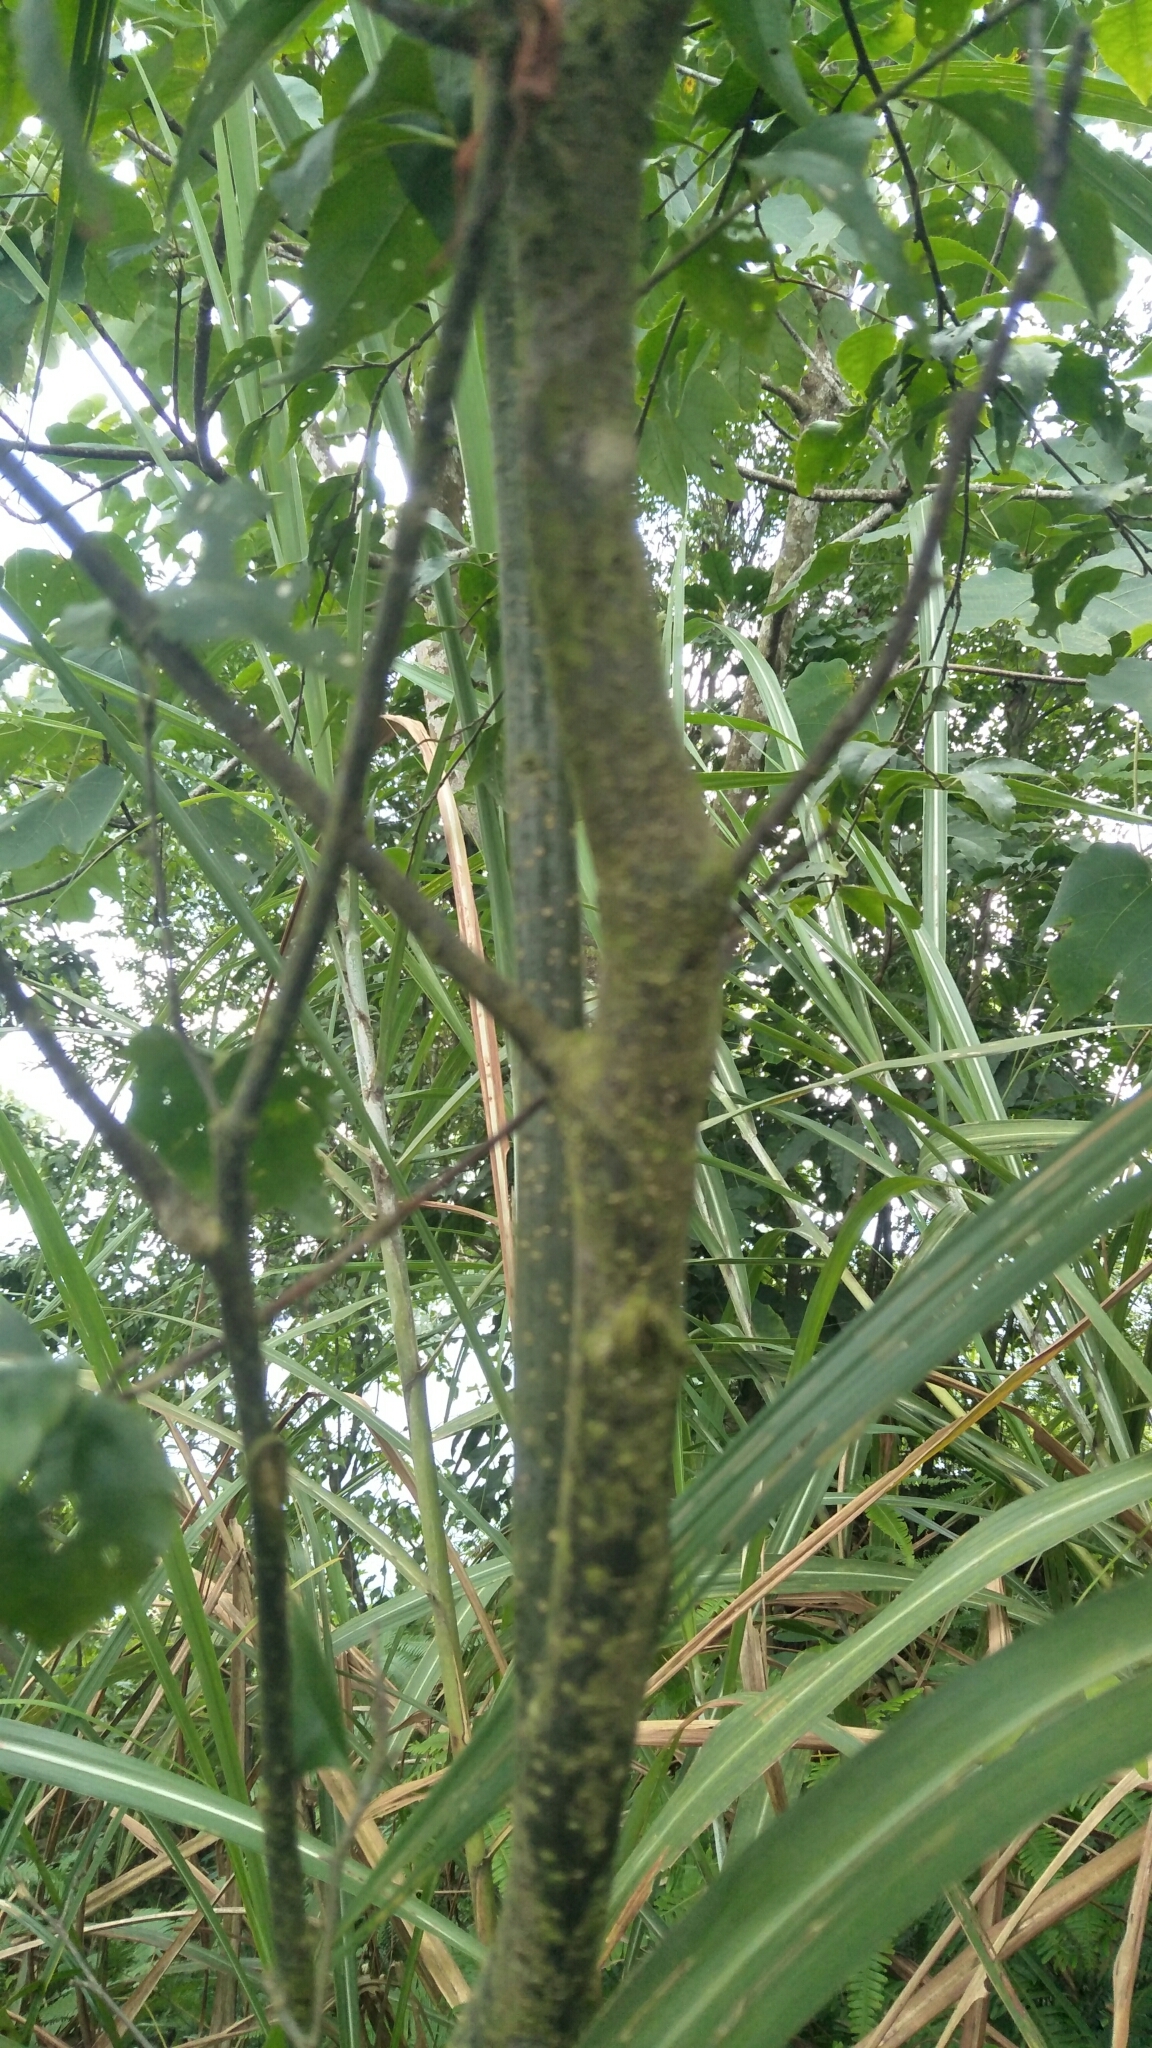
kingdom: Plantae
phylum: Tracheophyta
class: Magnoliopsida
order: Aquifoliales
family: Aquifoliaceae
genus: Ilex
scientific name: Ilex asprella
